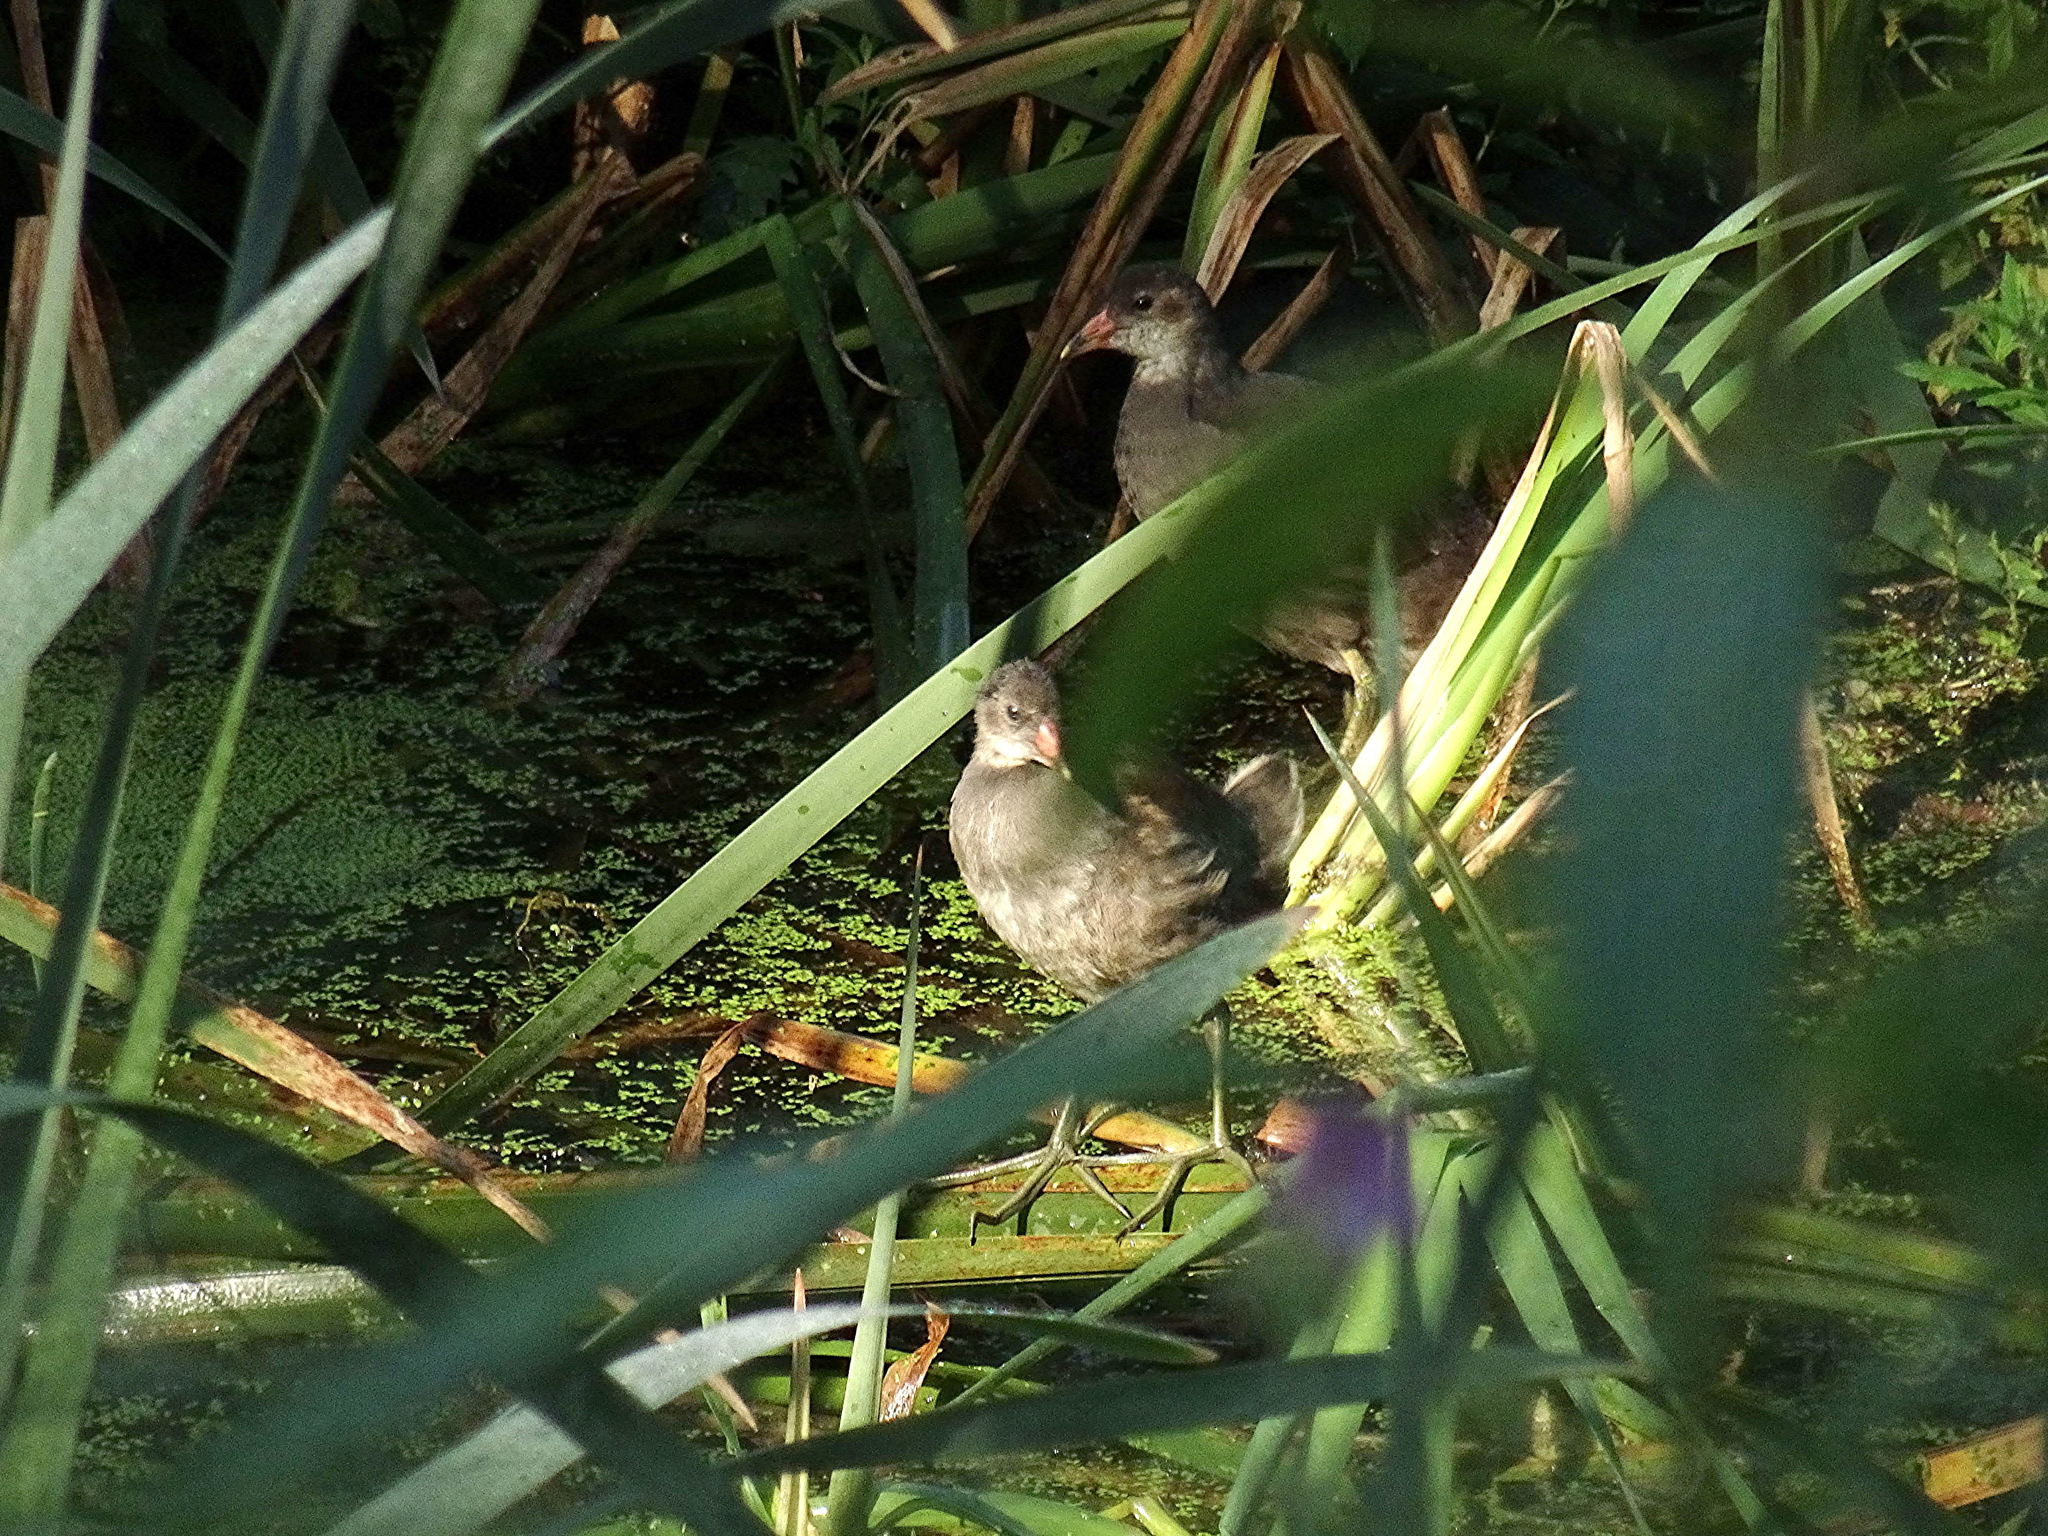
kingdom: Animalia
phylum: Chordata
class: Aves
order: Gruiformes
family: Rallidae
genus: Gallinula
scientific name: Gallinula chloropus
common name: Common moorhen
